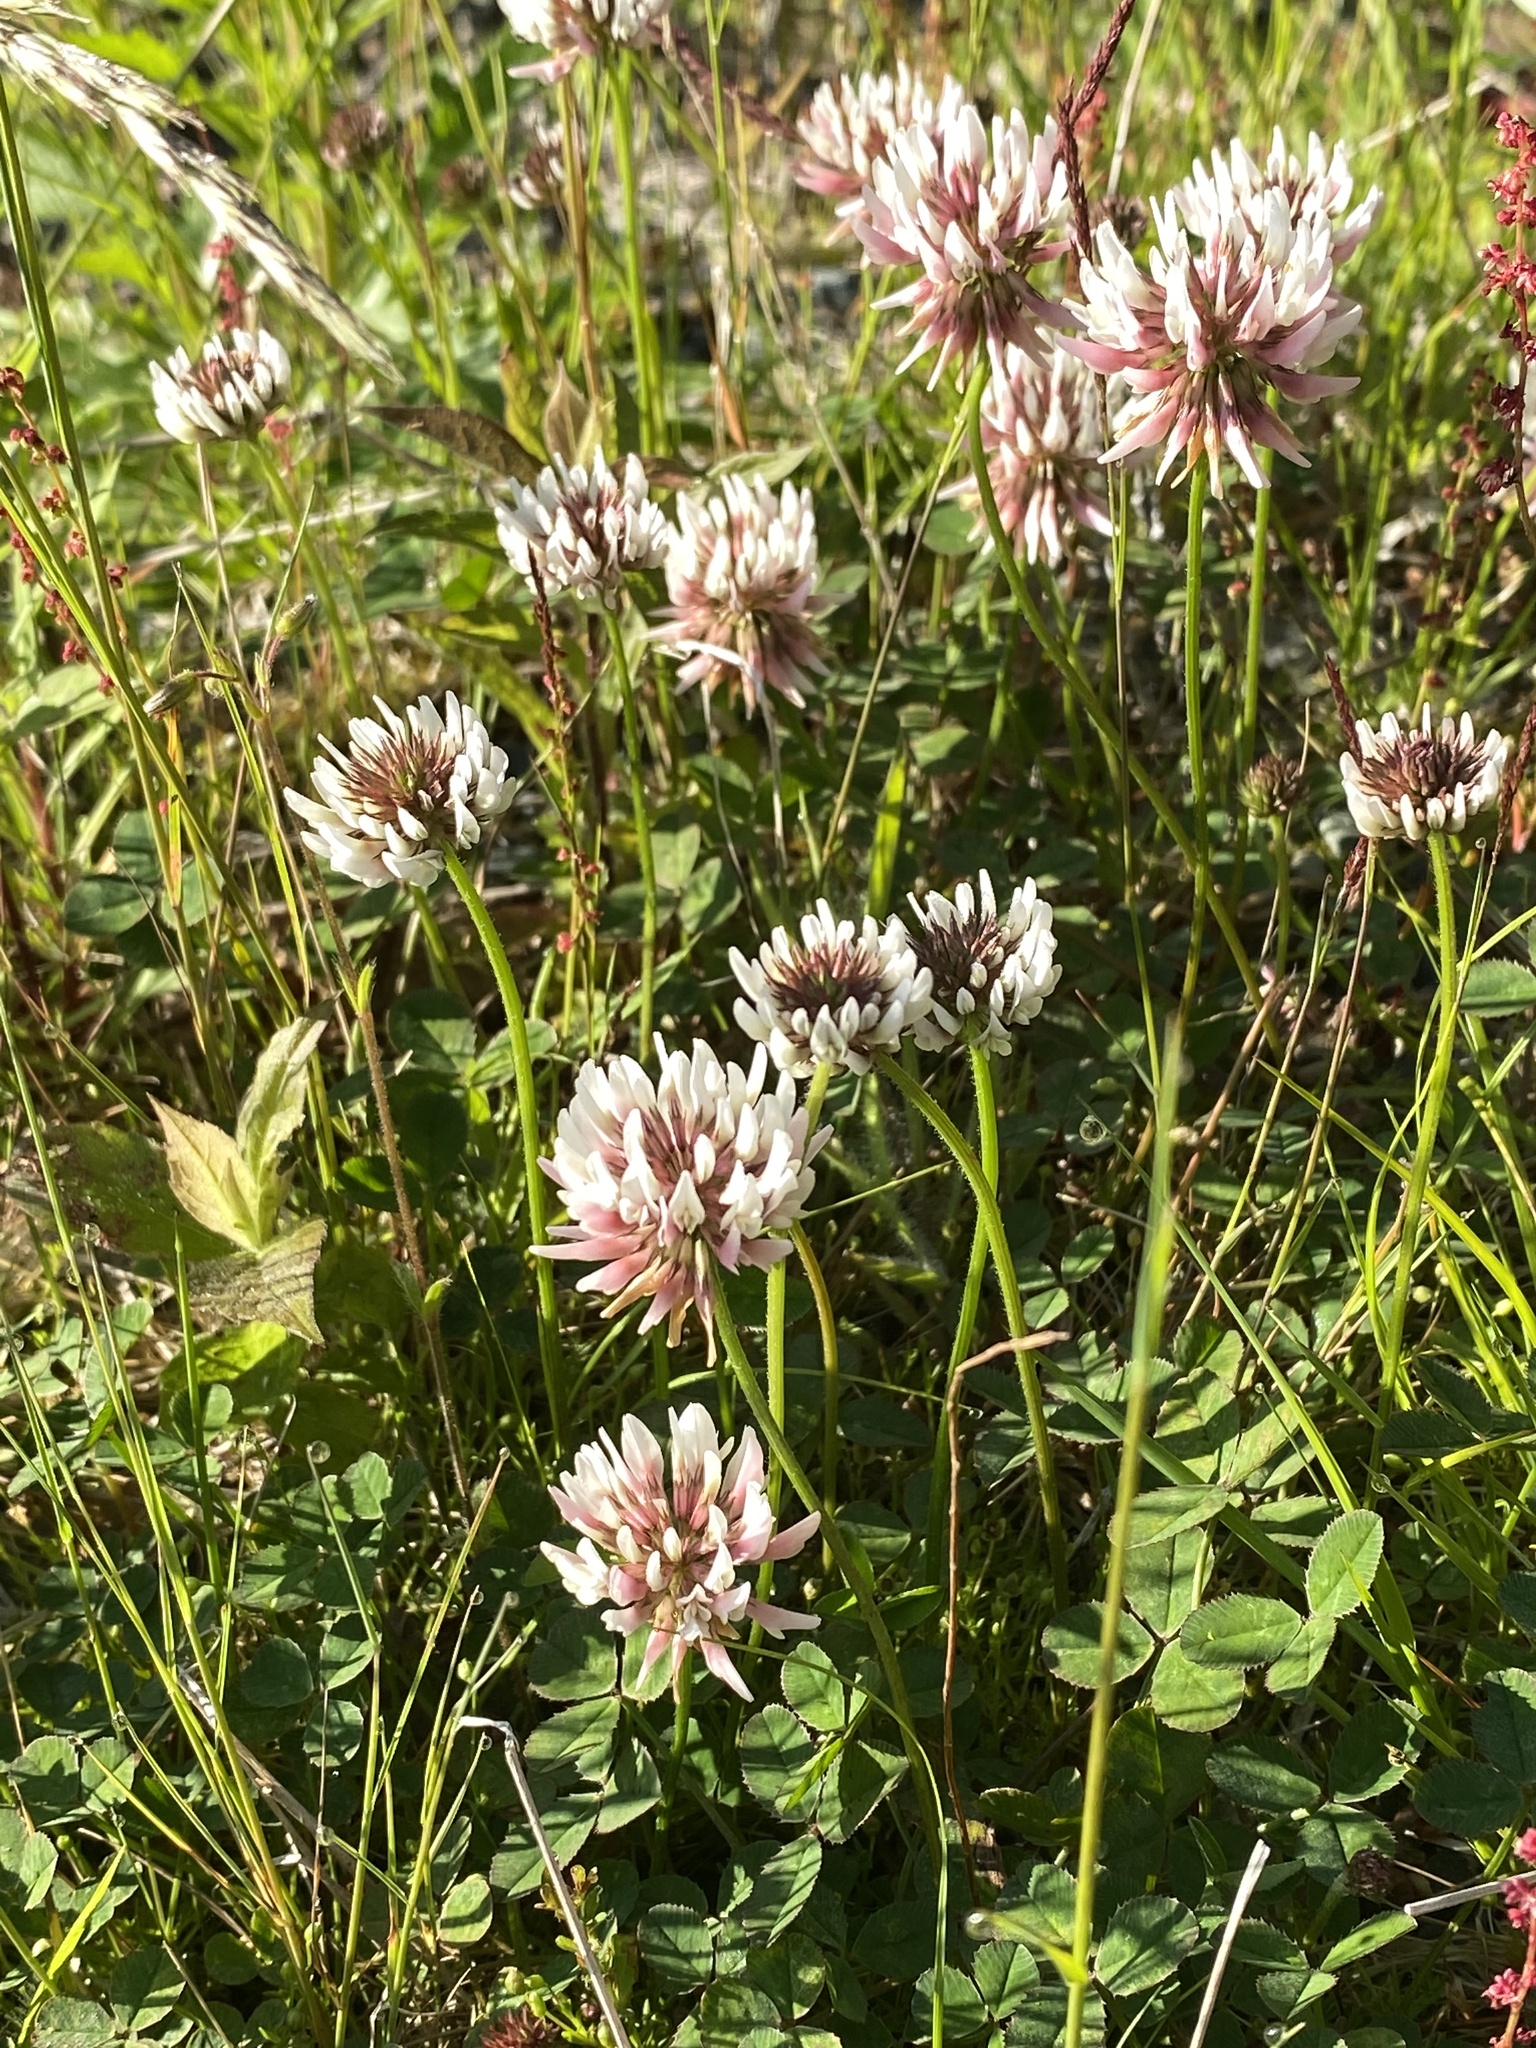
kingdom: Plantae
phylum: Tracheophyta
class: Magnoliopsida
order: Fabales
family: Fabaceae
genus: Trifolium
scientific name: Trifolium repens
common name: White clover
